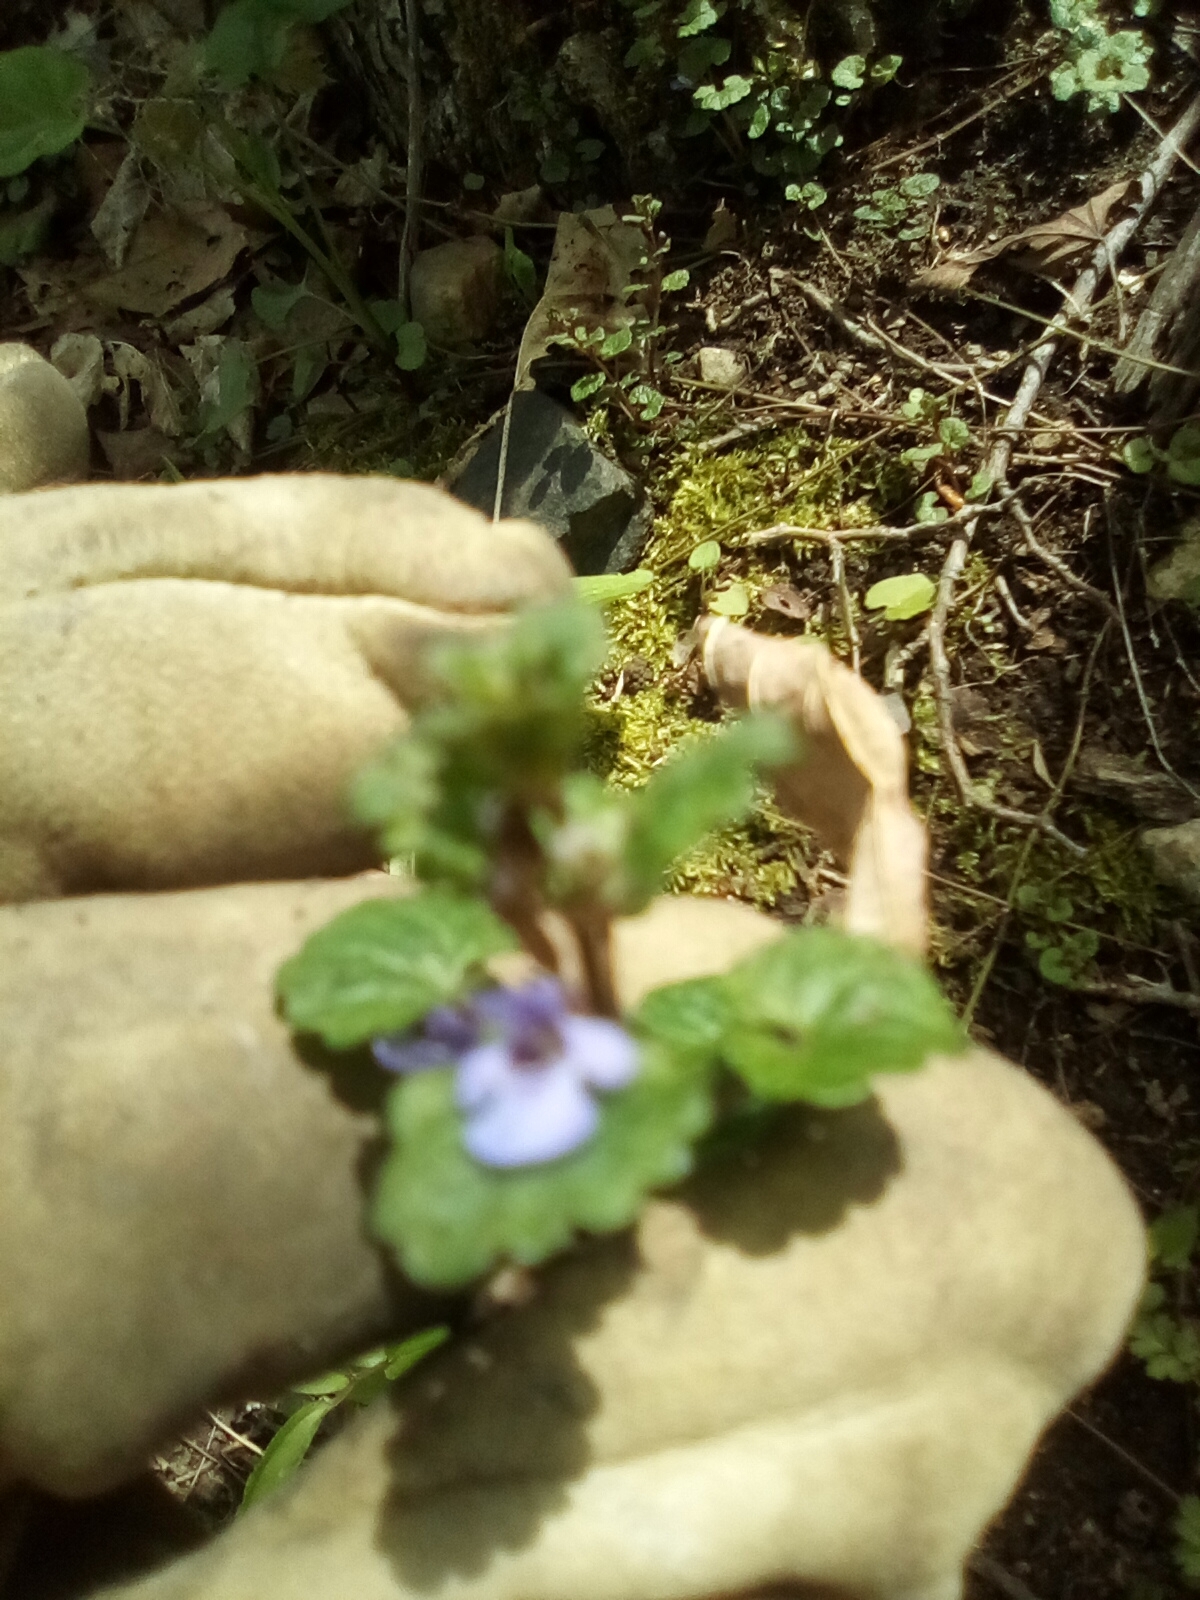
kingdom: Plantae
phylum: Tracheophyta
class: Magnoliopsida
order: Lamiales
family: Lamiaceae
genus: Glechoma
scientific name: Glechoma hederacea
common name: Ground ivy
